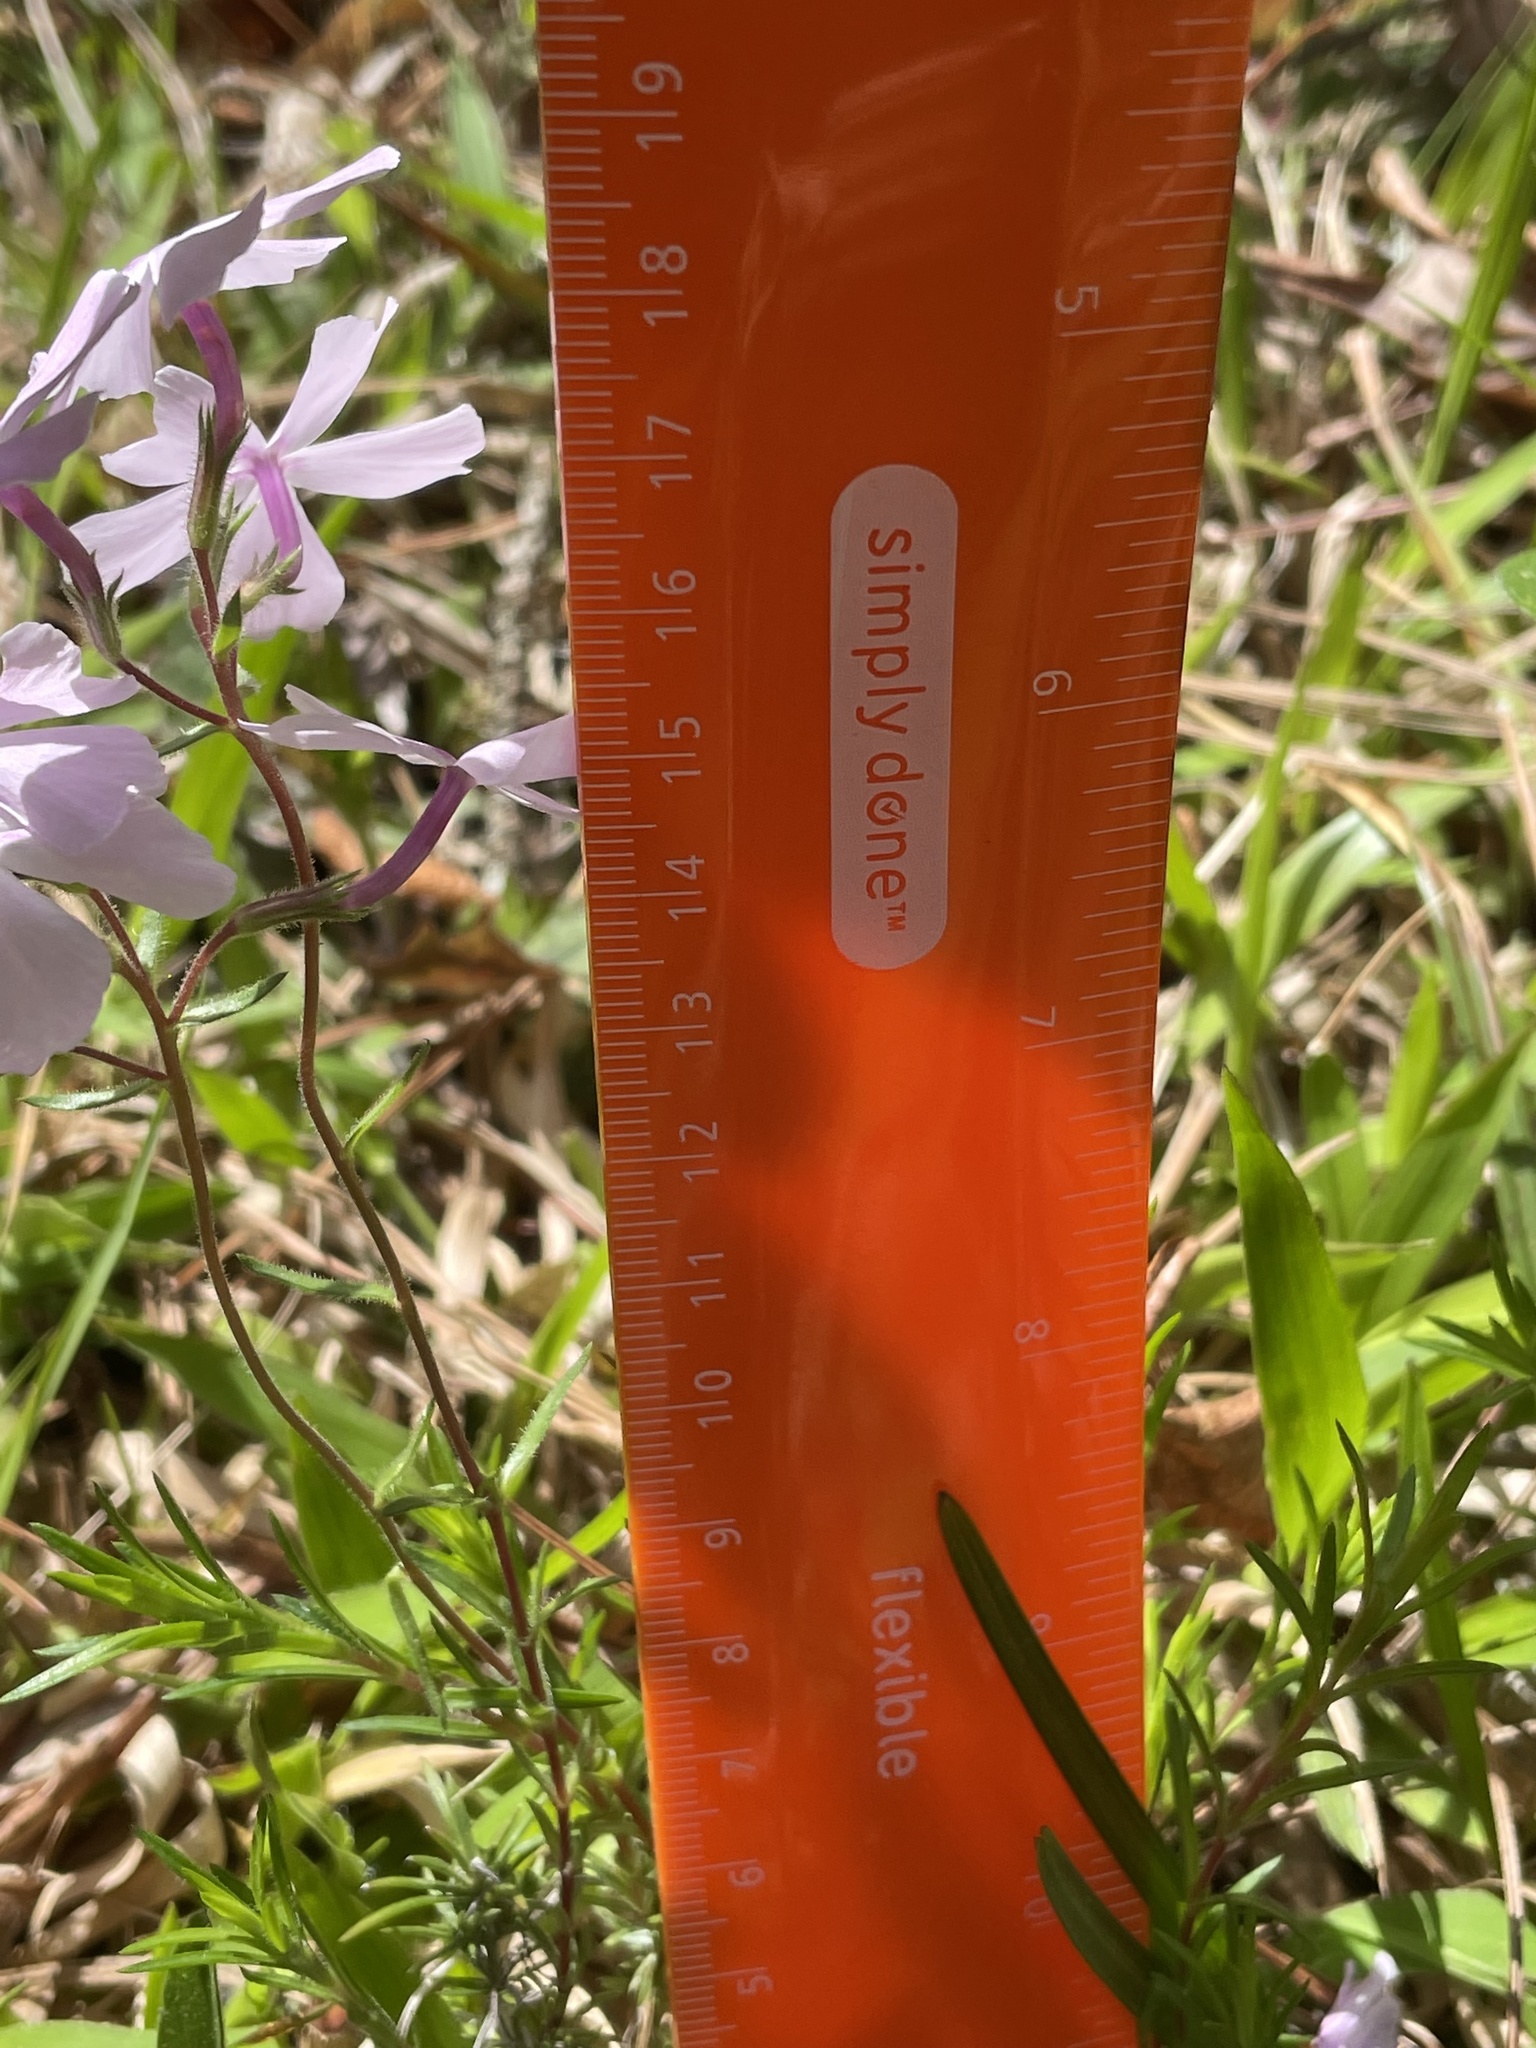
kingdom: Plantae
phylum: Tracheophyta
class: Magnoliopsida
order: Ericales
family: Polemoniaceae
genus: Phlox
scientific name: Phlox nivalis
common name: Trailing phlox
